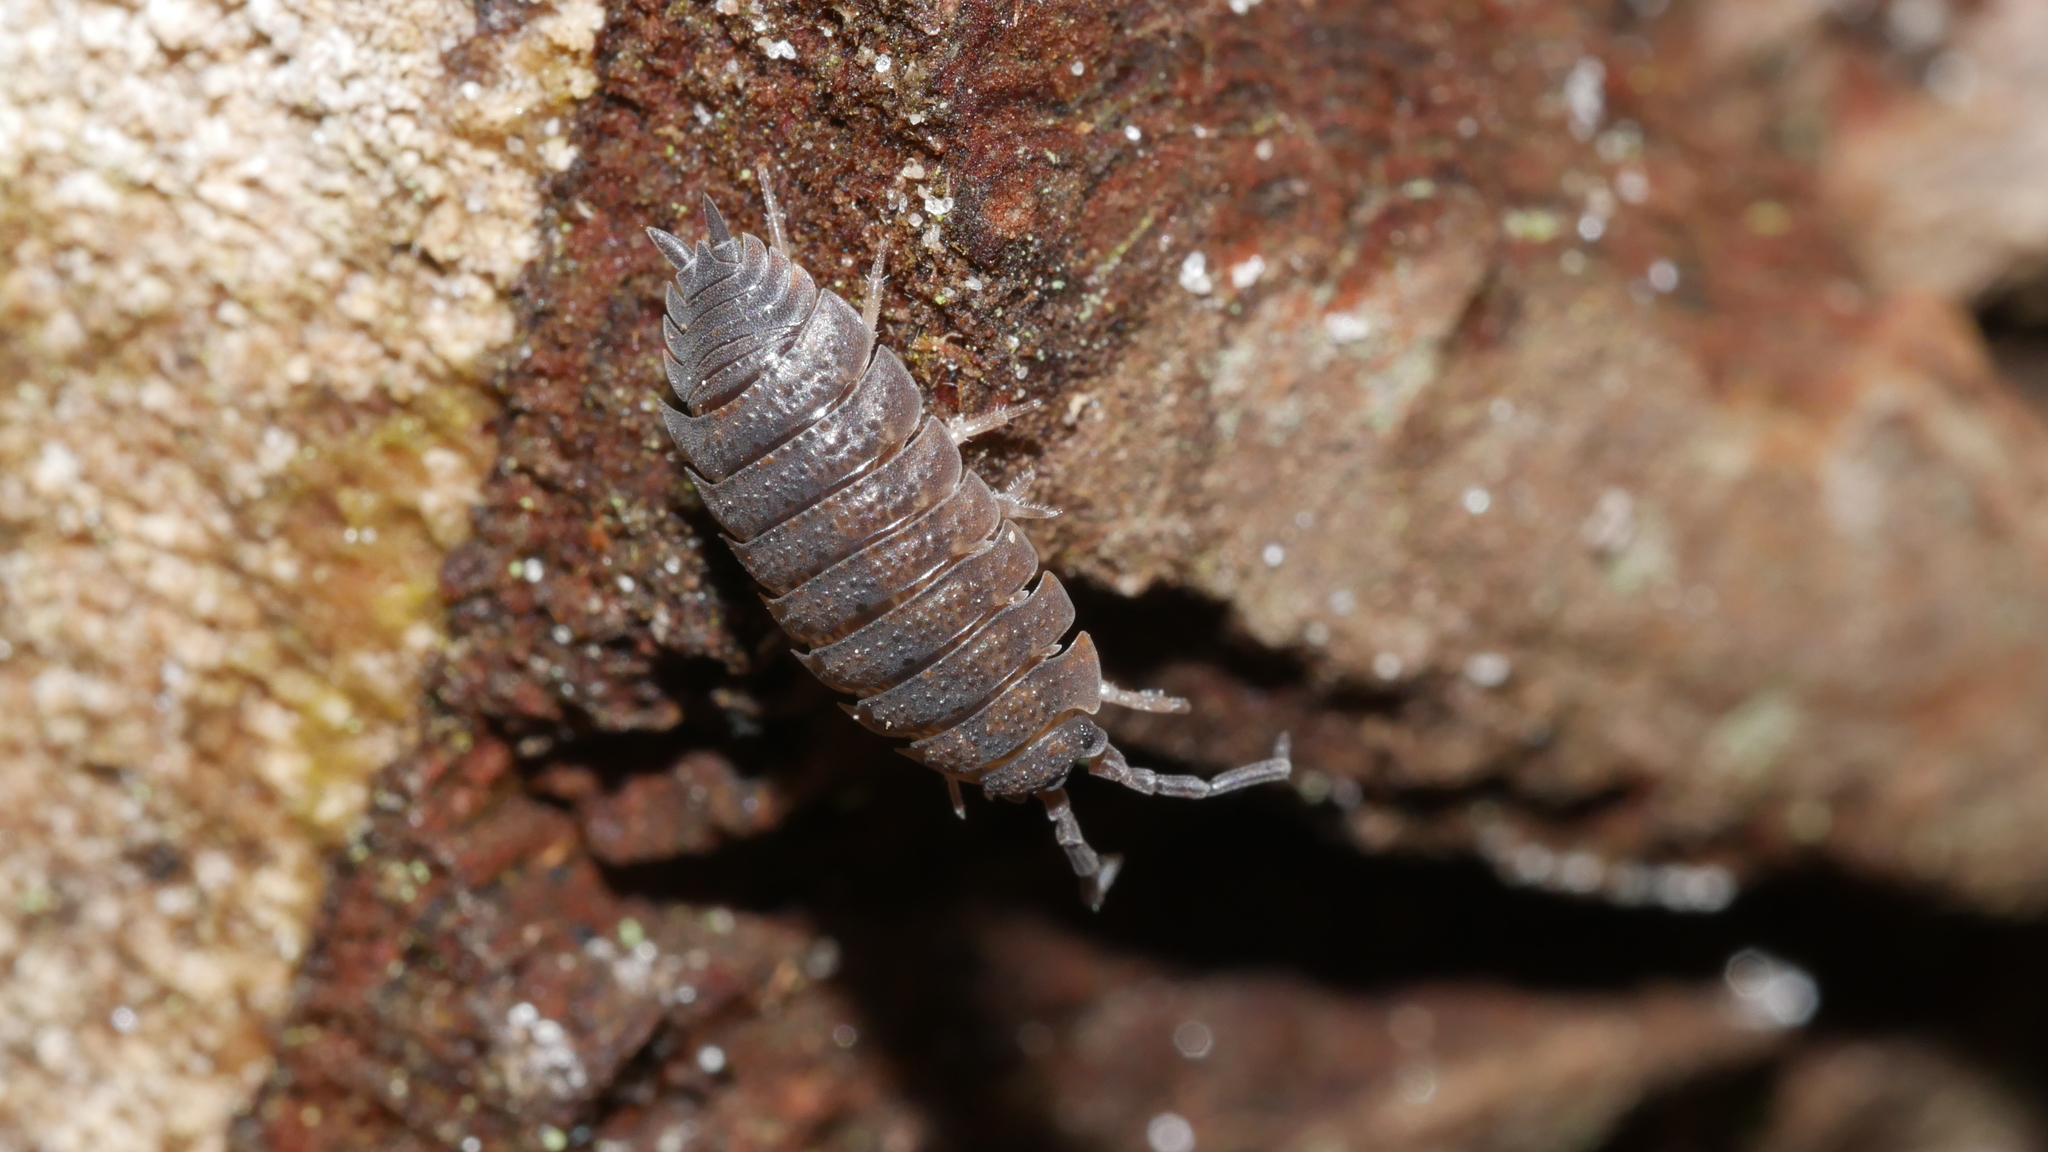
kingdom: Animalia
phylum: Arthropoda
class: Malacostraca
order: Isopoda
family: Porcellionidae
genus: Porcellio
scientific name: Porcellio scaber
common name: Common rough woodlouse
